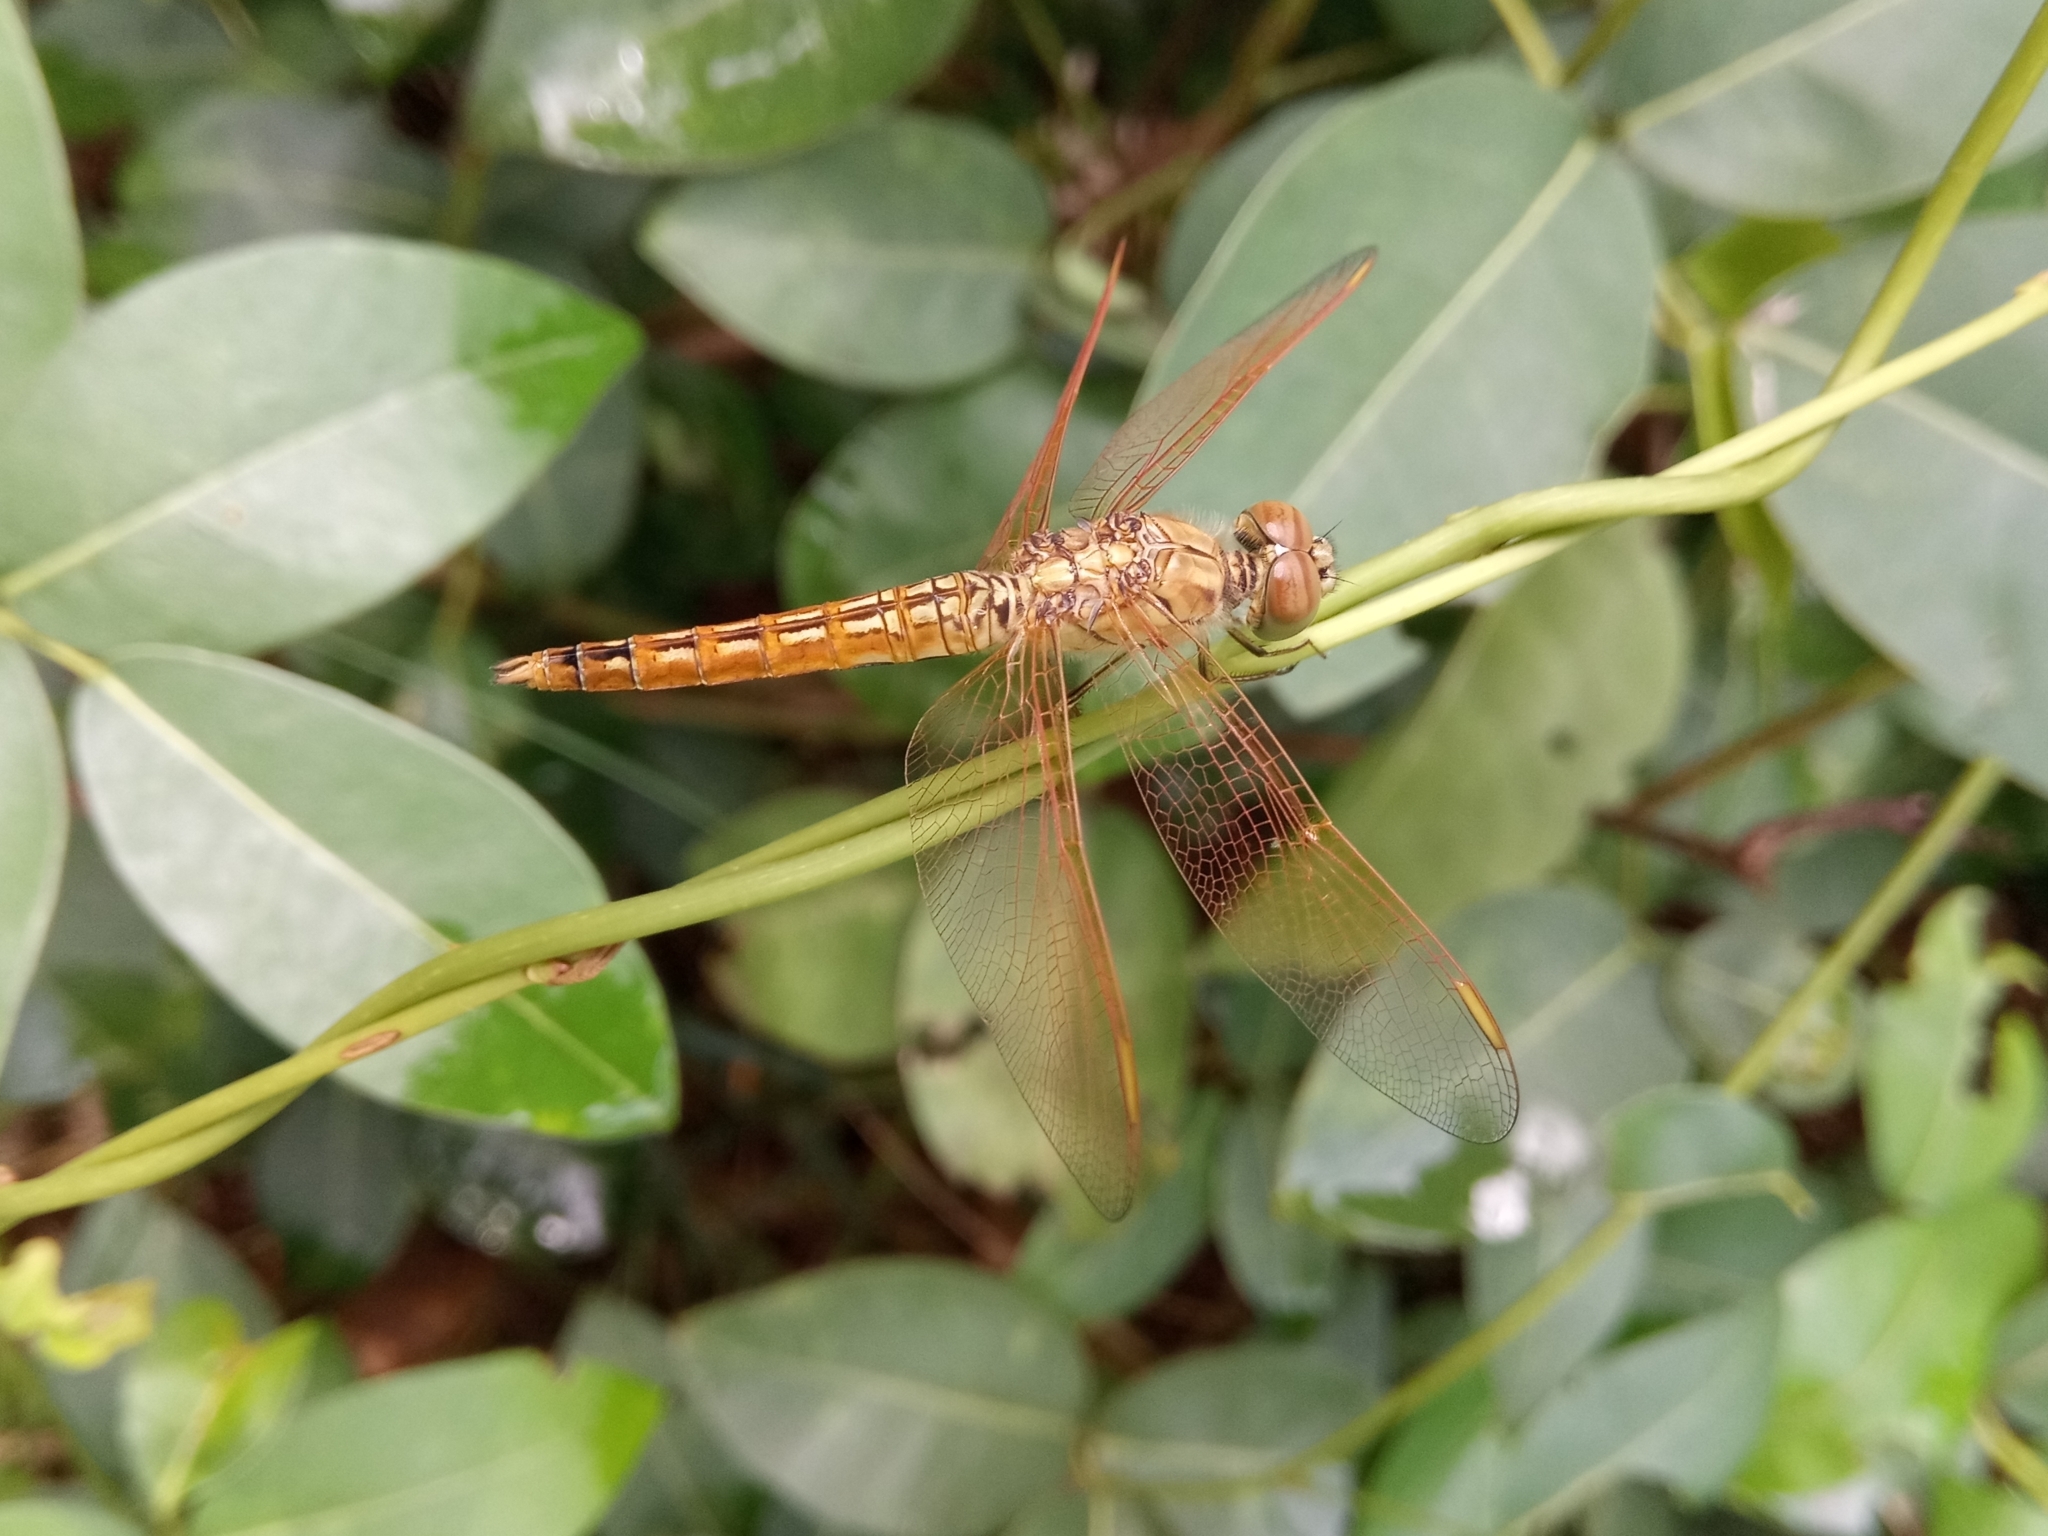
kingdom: Animalia
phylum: Arthropoda
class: Insecta
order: Odonata
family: Libellulidae
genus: Brachythemis
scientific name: Brachythemis contaminata
